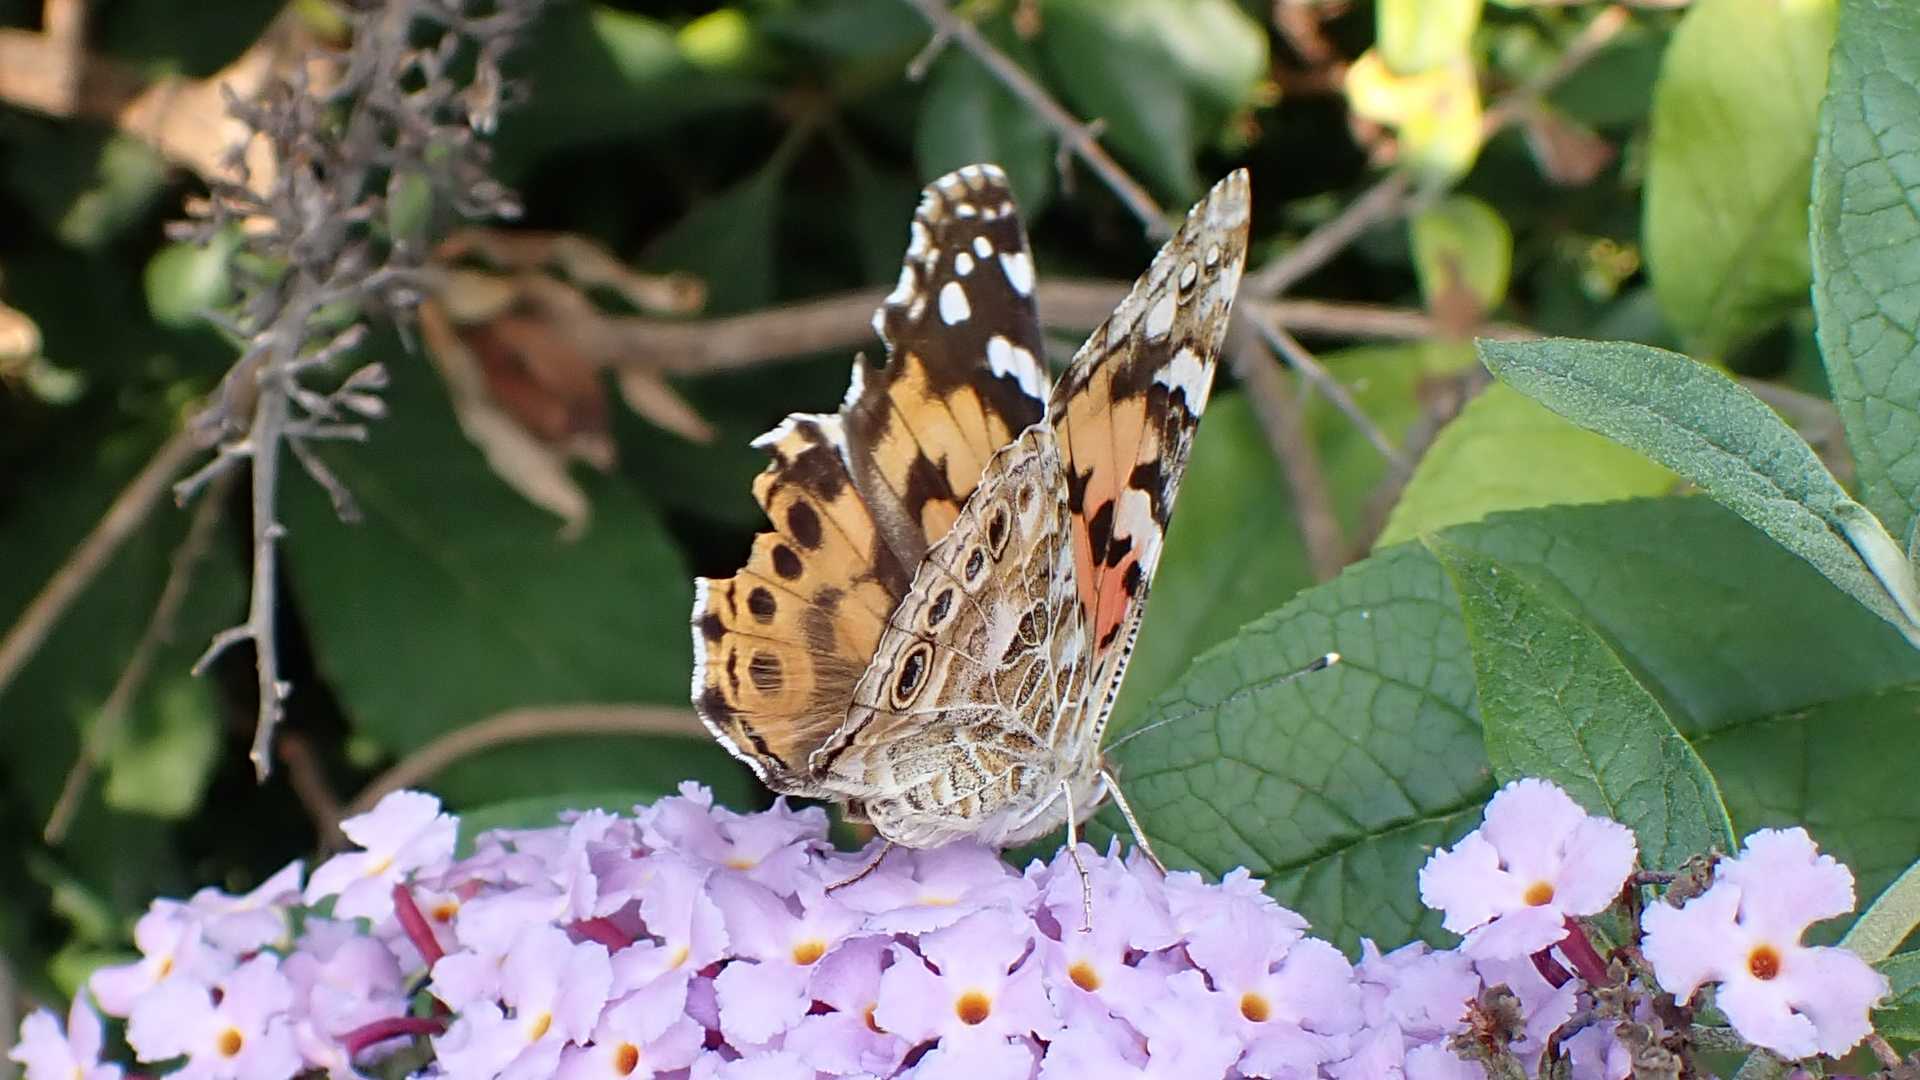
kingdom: Animalia
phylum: Arthropoda
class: Insecta
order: Lepidoptera
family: Nymphalidae
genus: Vanessa
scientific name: Vanessa cardui
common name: Painted lady
